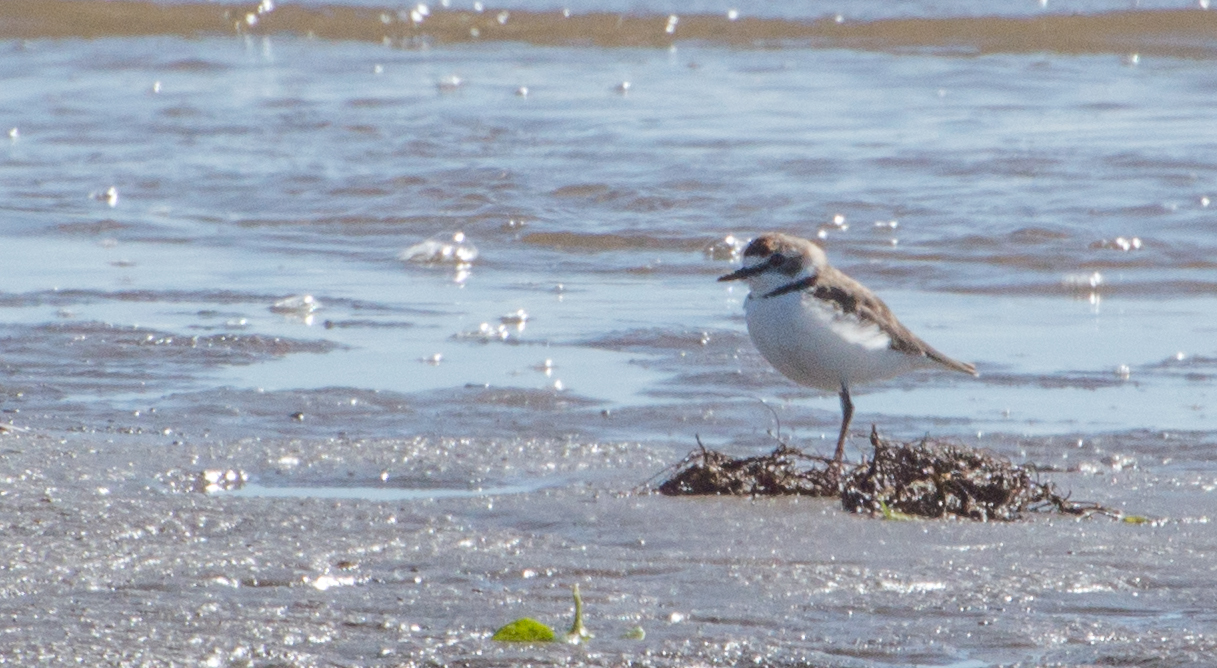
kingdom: Animalia
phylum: Chordata
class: Aves
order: Charadriiformes
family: Charadriidae
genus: Anarhynchus
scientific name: Anarhynchus
